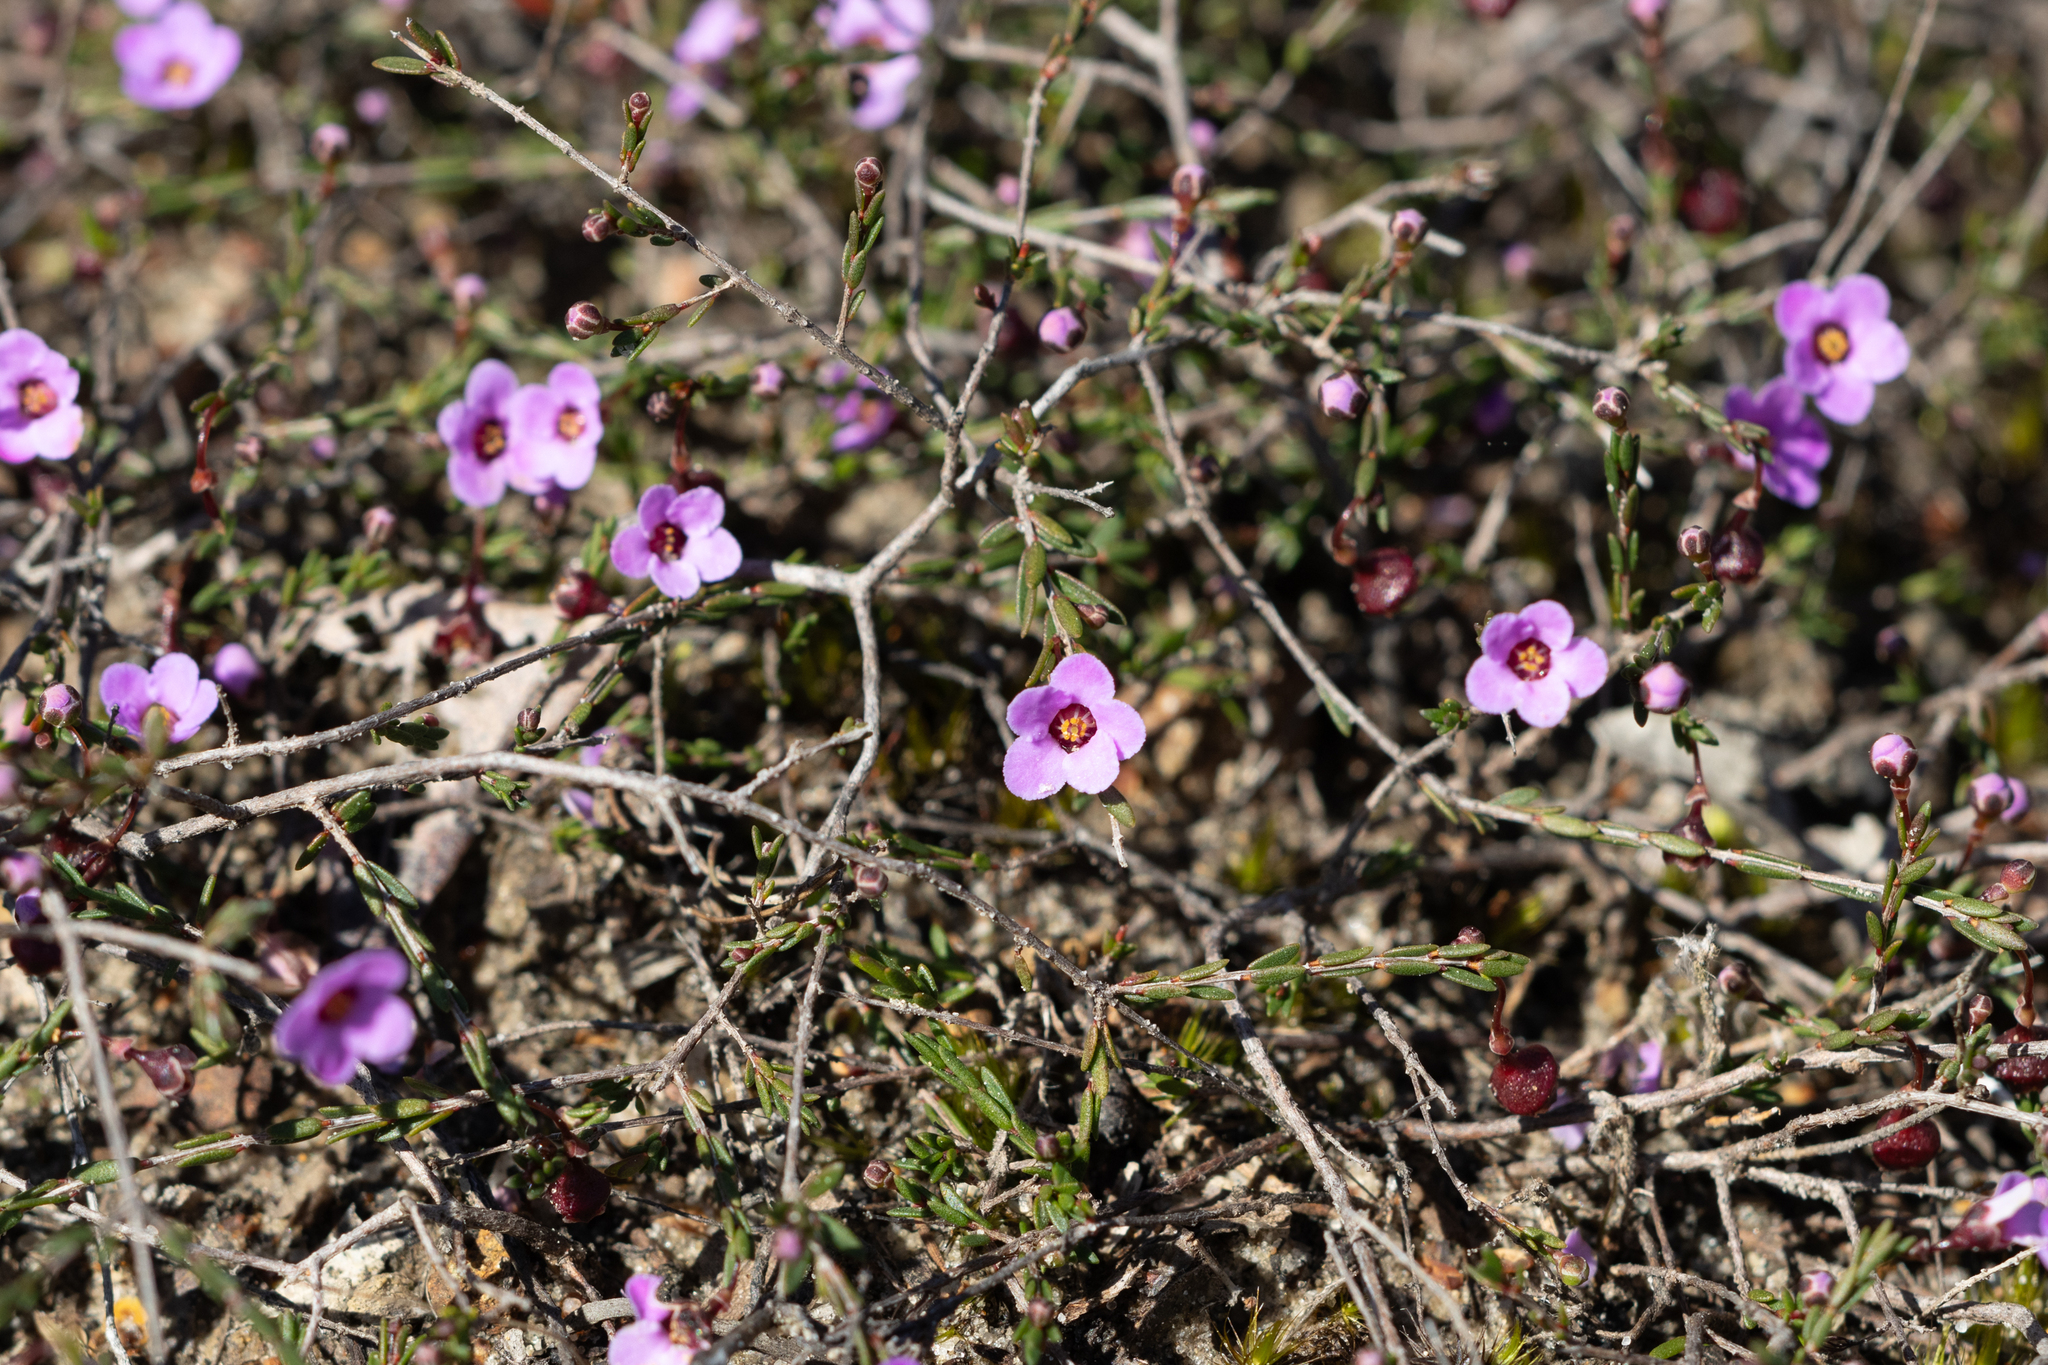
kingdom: Plantae
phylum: Tracheophyta
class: Magnoliopsida
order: Myrtales
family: Myrtaceae
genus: Euryomyrtus
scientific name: Euryomyrtus ramosissima
